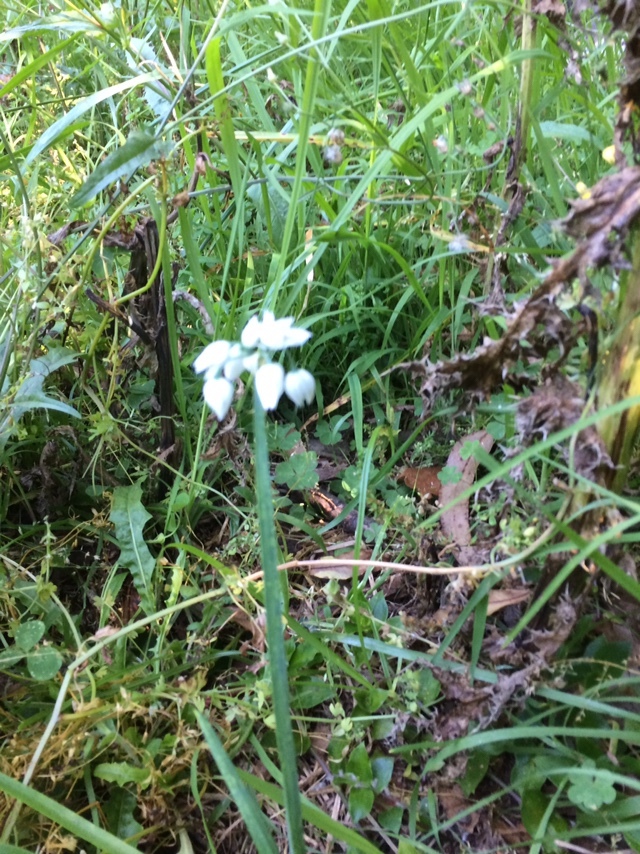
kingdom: Plantae
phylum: Tracheophyta
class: Liliopsida
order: Asparagales
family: Amaryllidaceae
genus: Allium
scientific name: Allium triquetrum
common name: Three-cornered garlic
